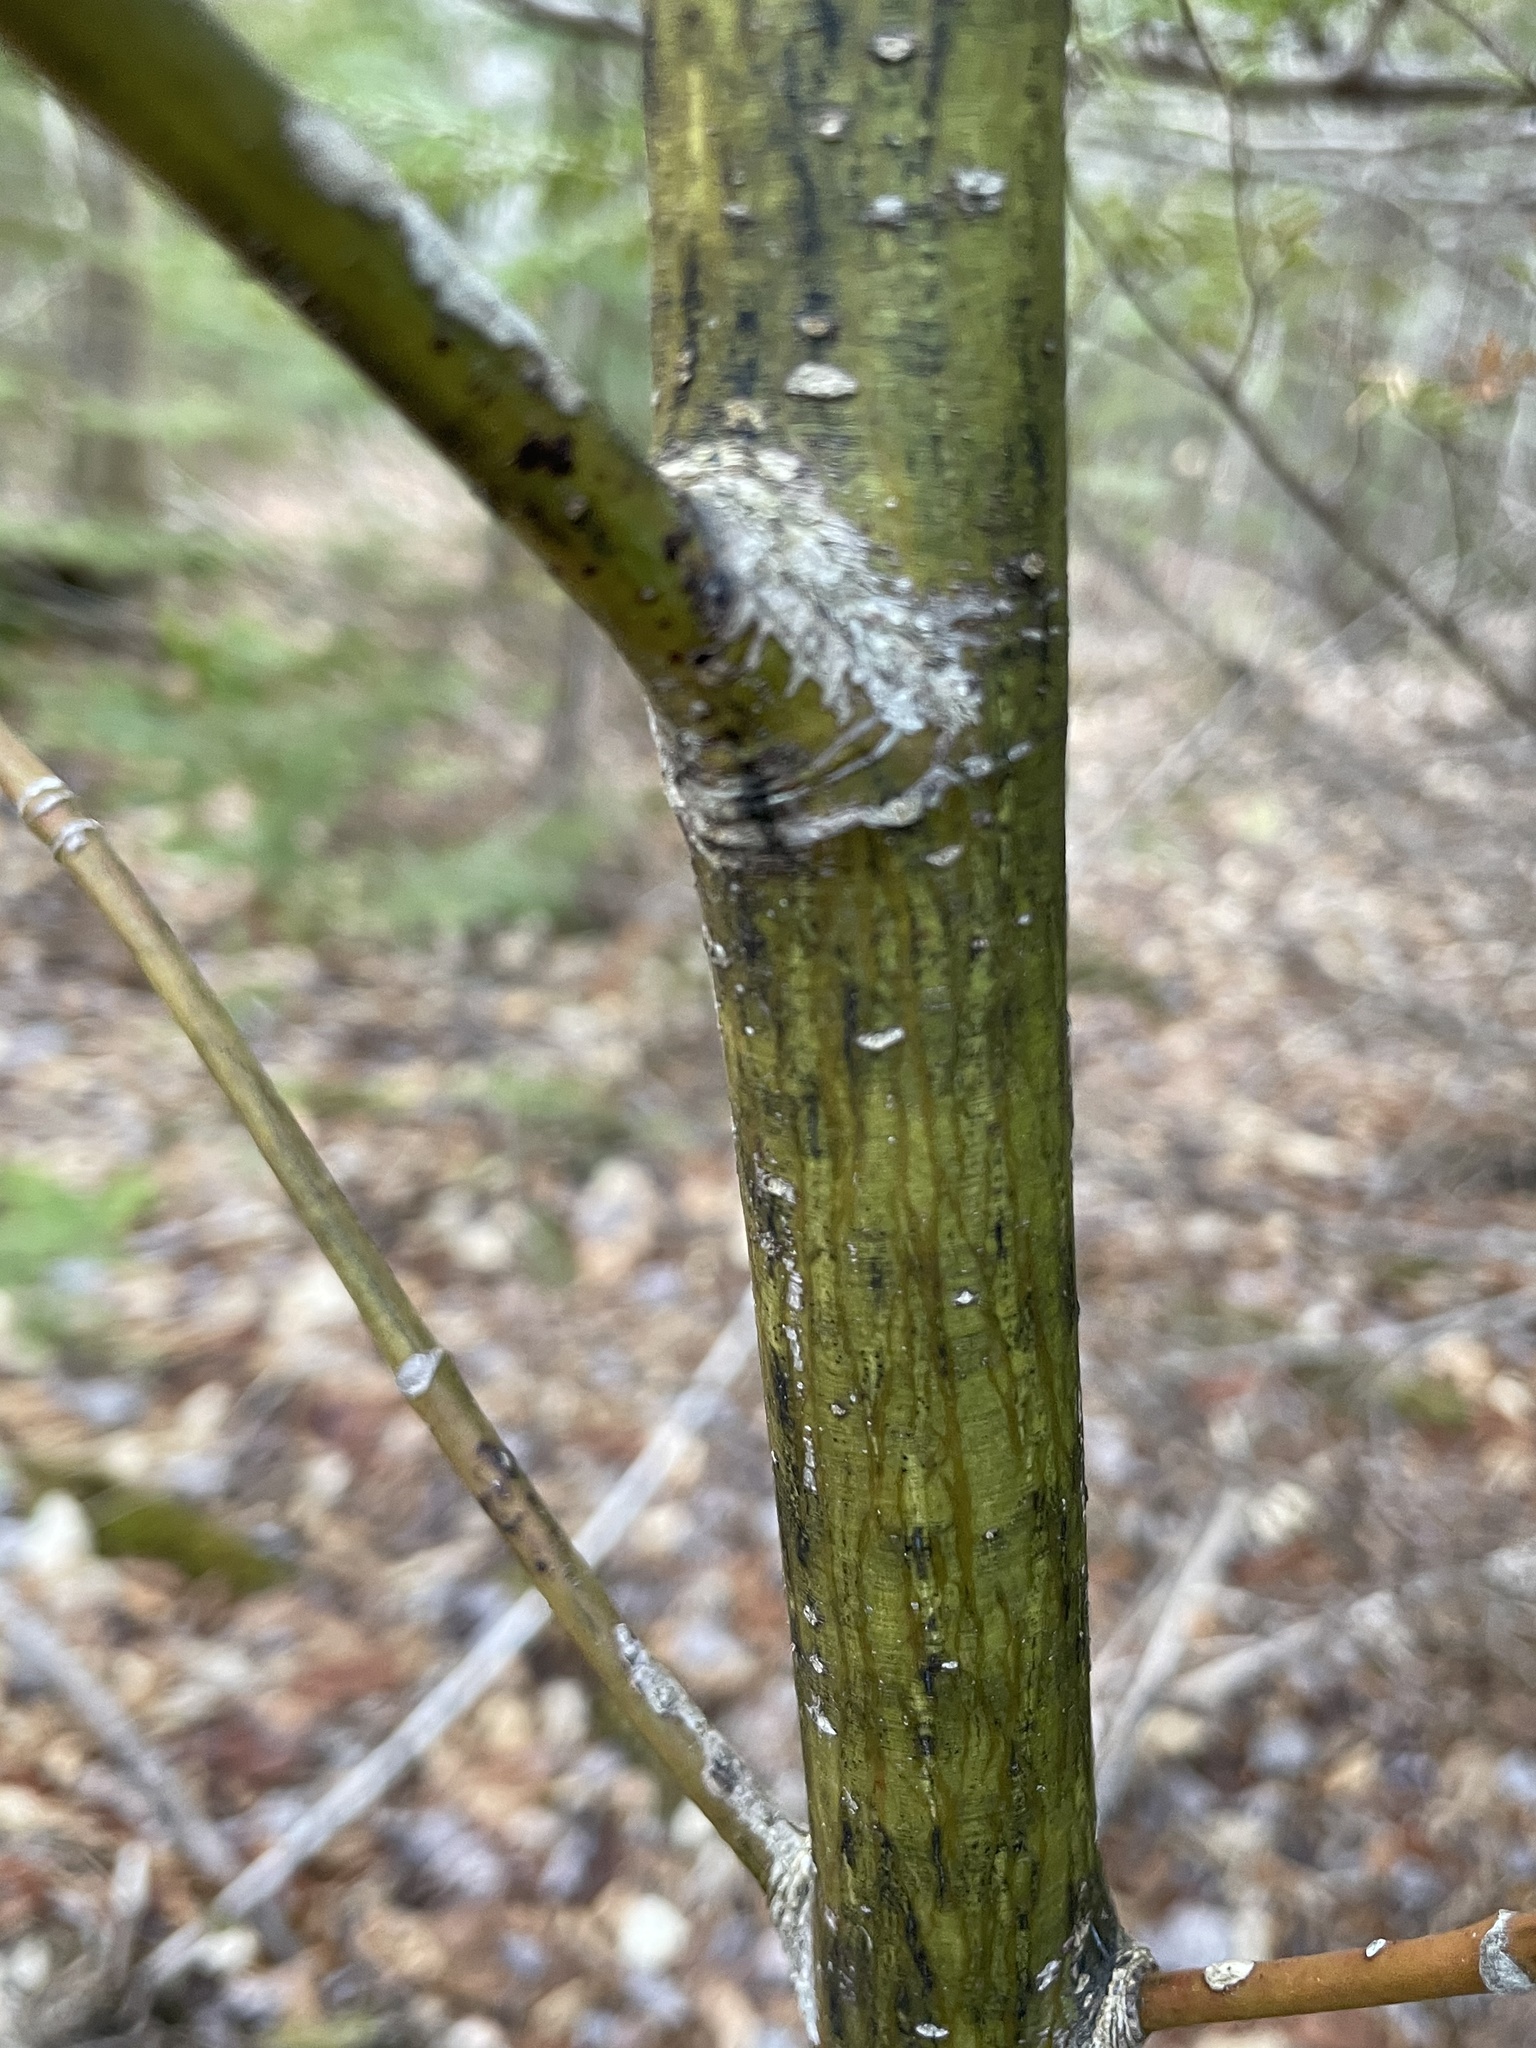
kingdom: Plantae
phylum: Tracheophyta
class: Magnoliopsida
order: Sapindales
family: Sapindaceae
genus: Acer
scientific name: Acer pensylvanicum
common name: Moosewood
